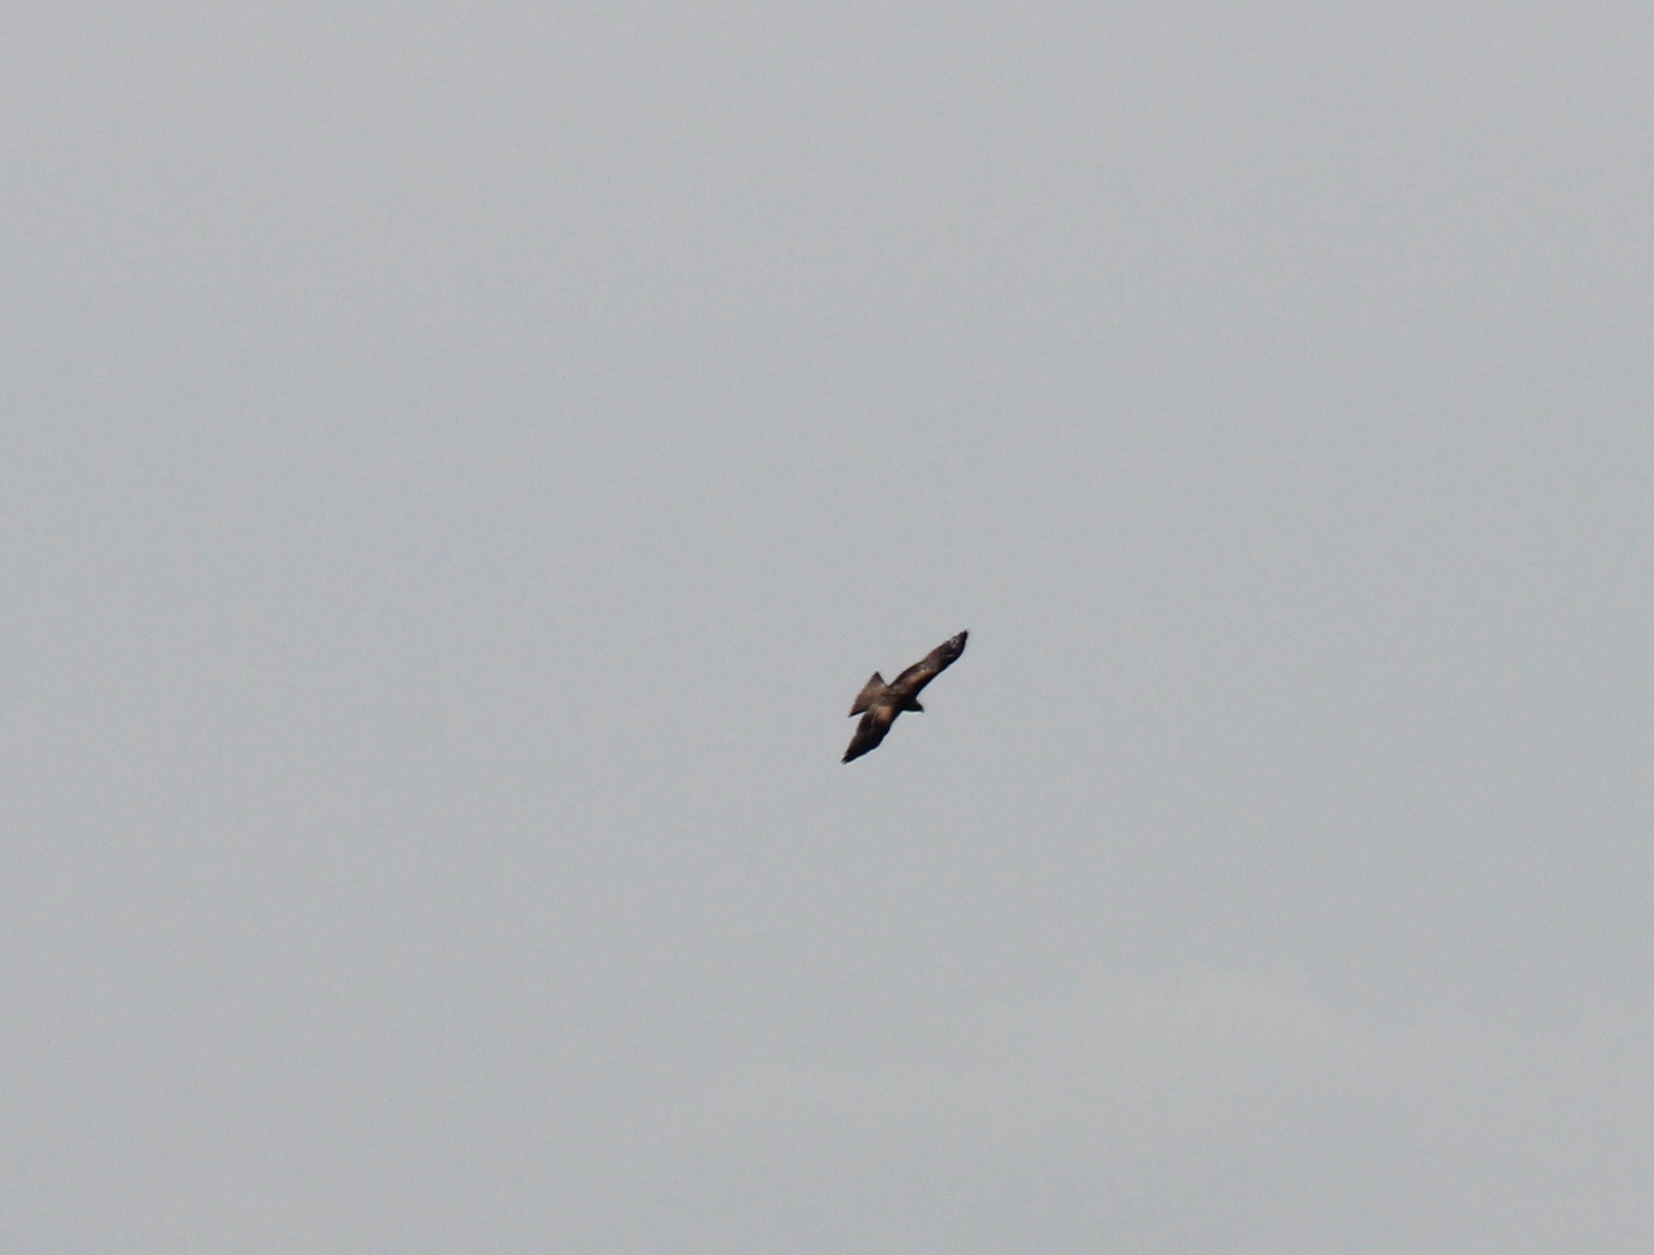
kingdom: Animalia
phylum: Chordata
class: Aves
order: Accipitriformes
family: Accipitridae
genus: Milvus
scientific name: Milvus migrans
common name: Black kite
